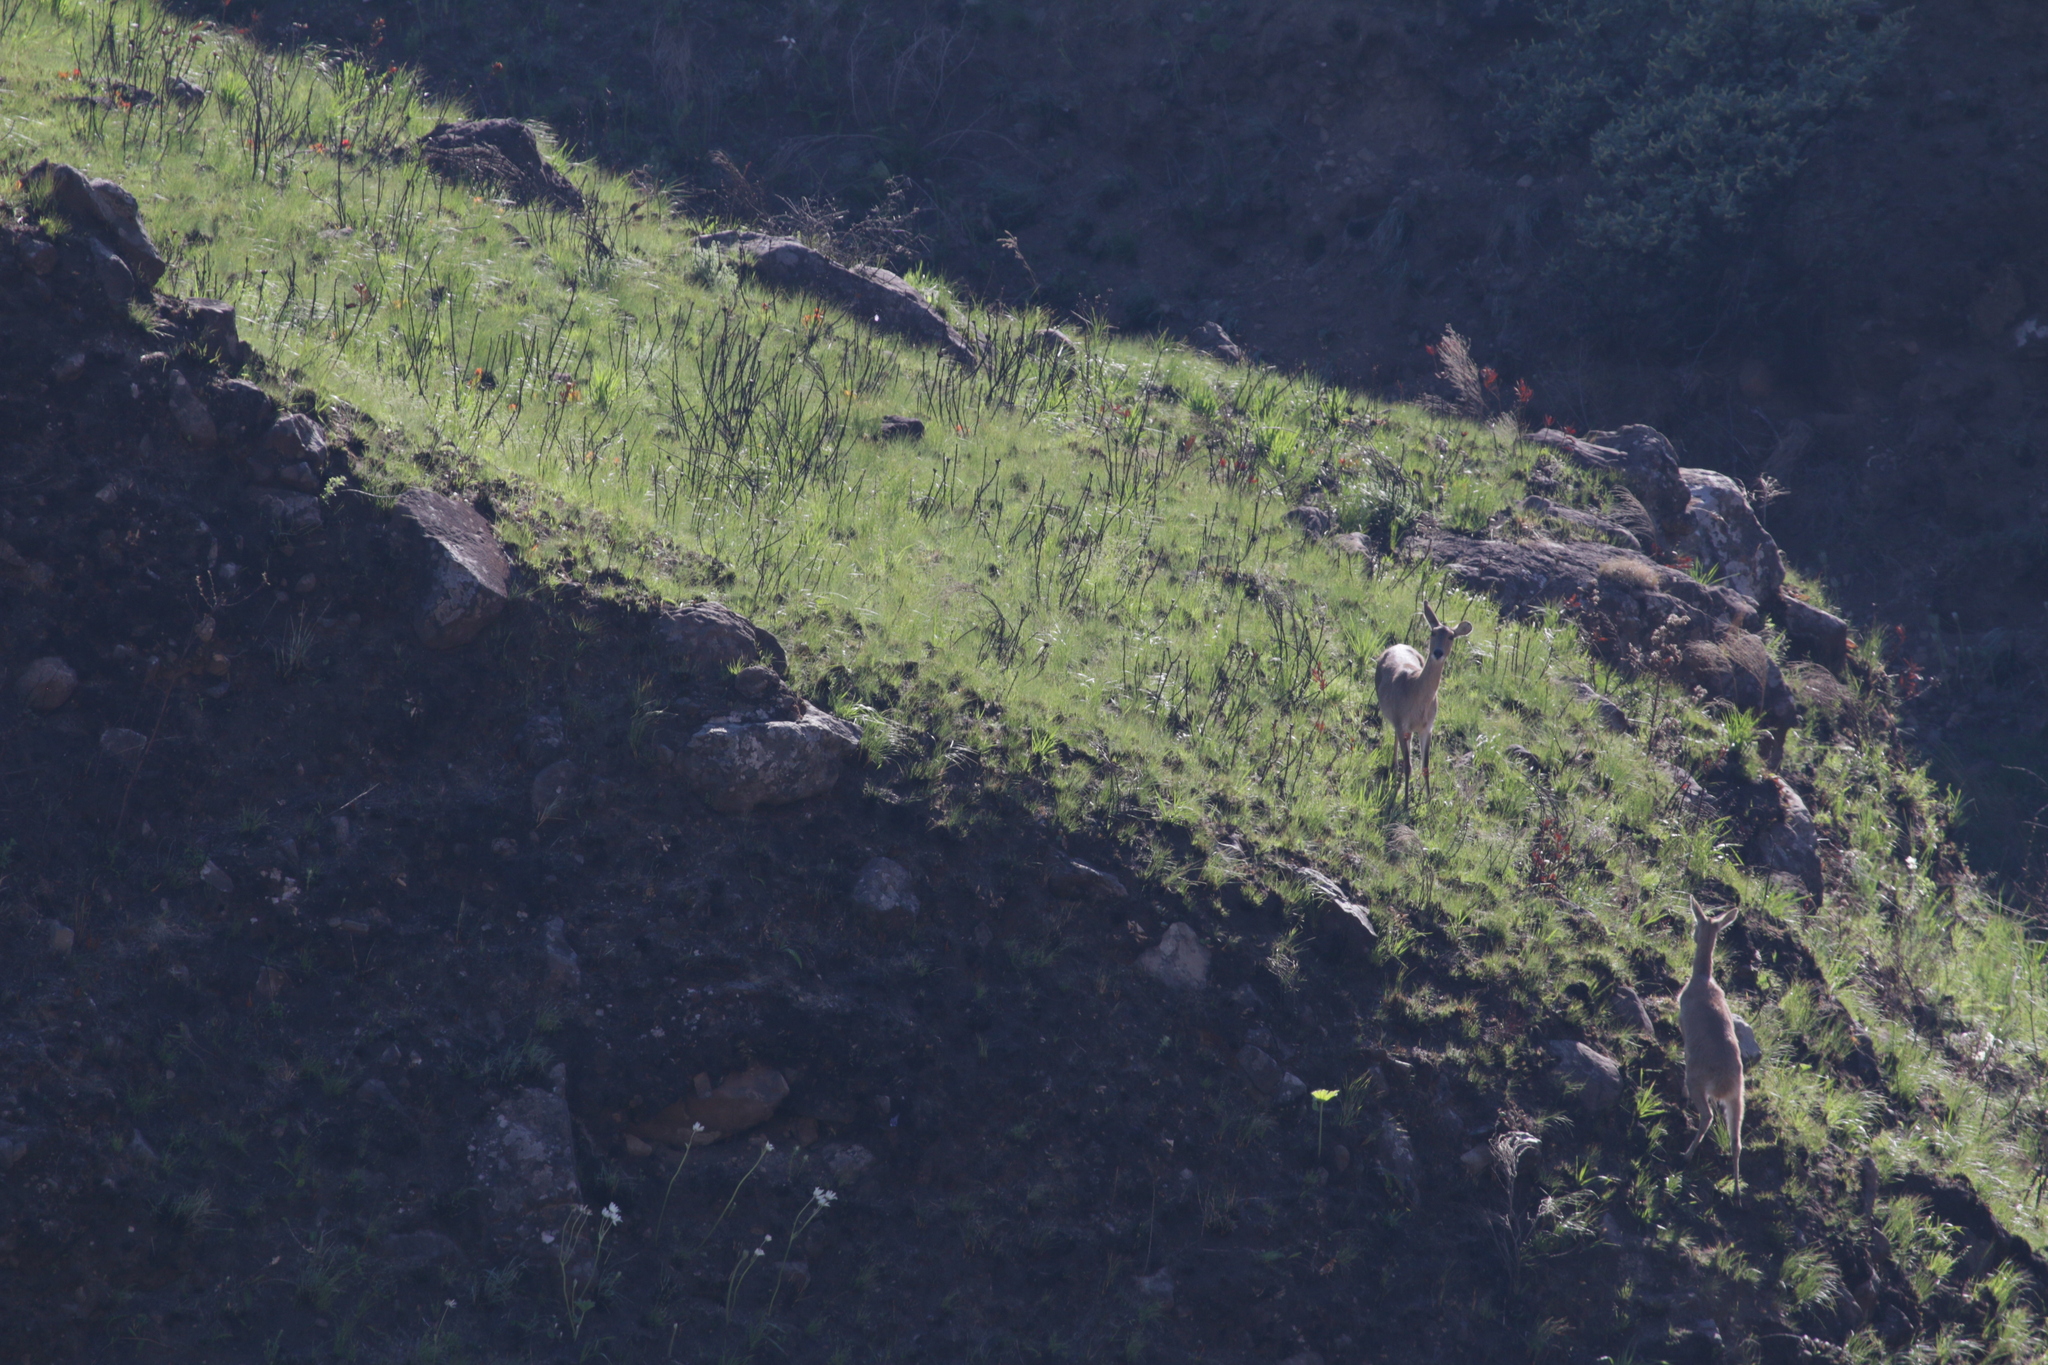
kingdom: Animalia
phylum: Chordata
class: Mammalia
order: Artiodactyla
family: Bovidae
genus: Redunca
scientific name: Redunca arundinum
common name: Southern reedbuck
